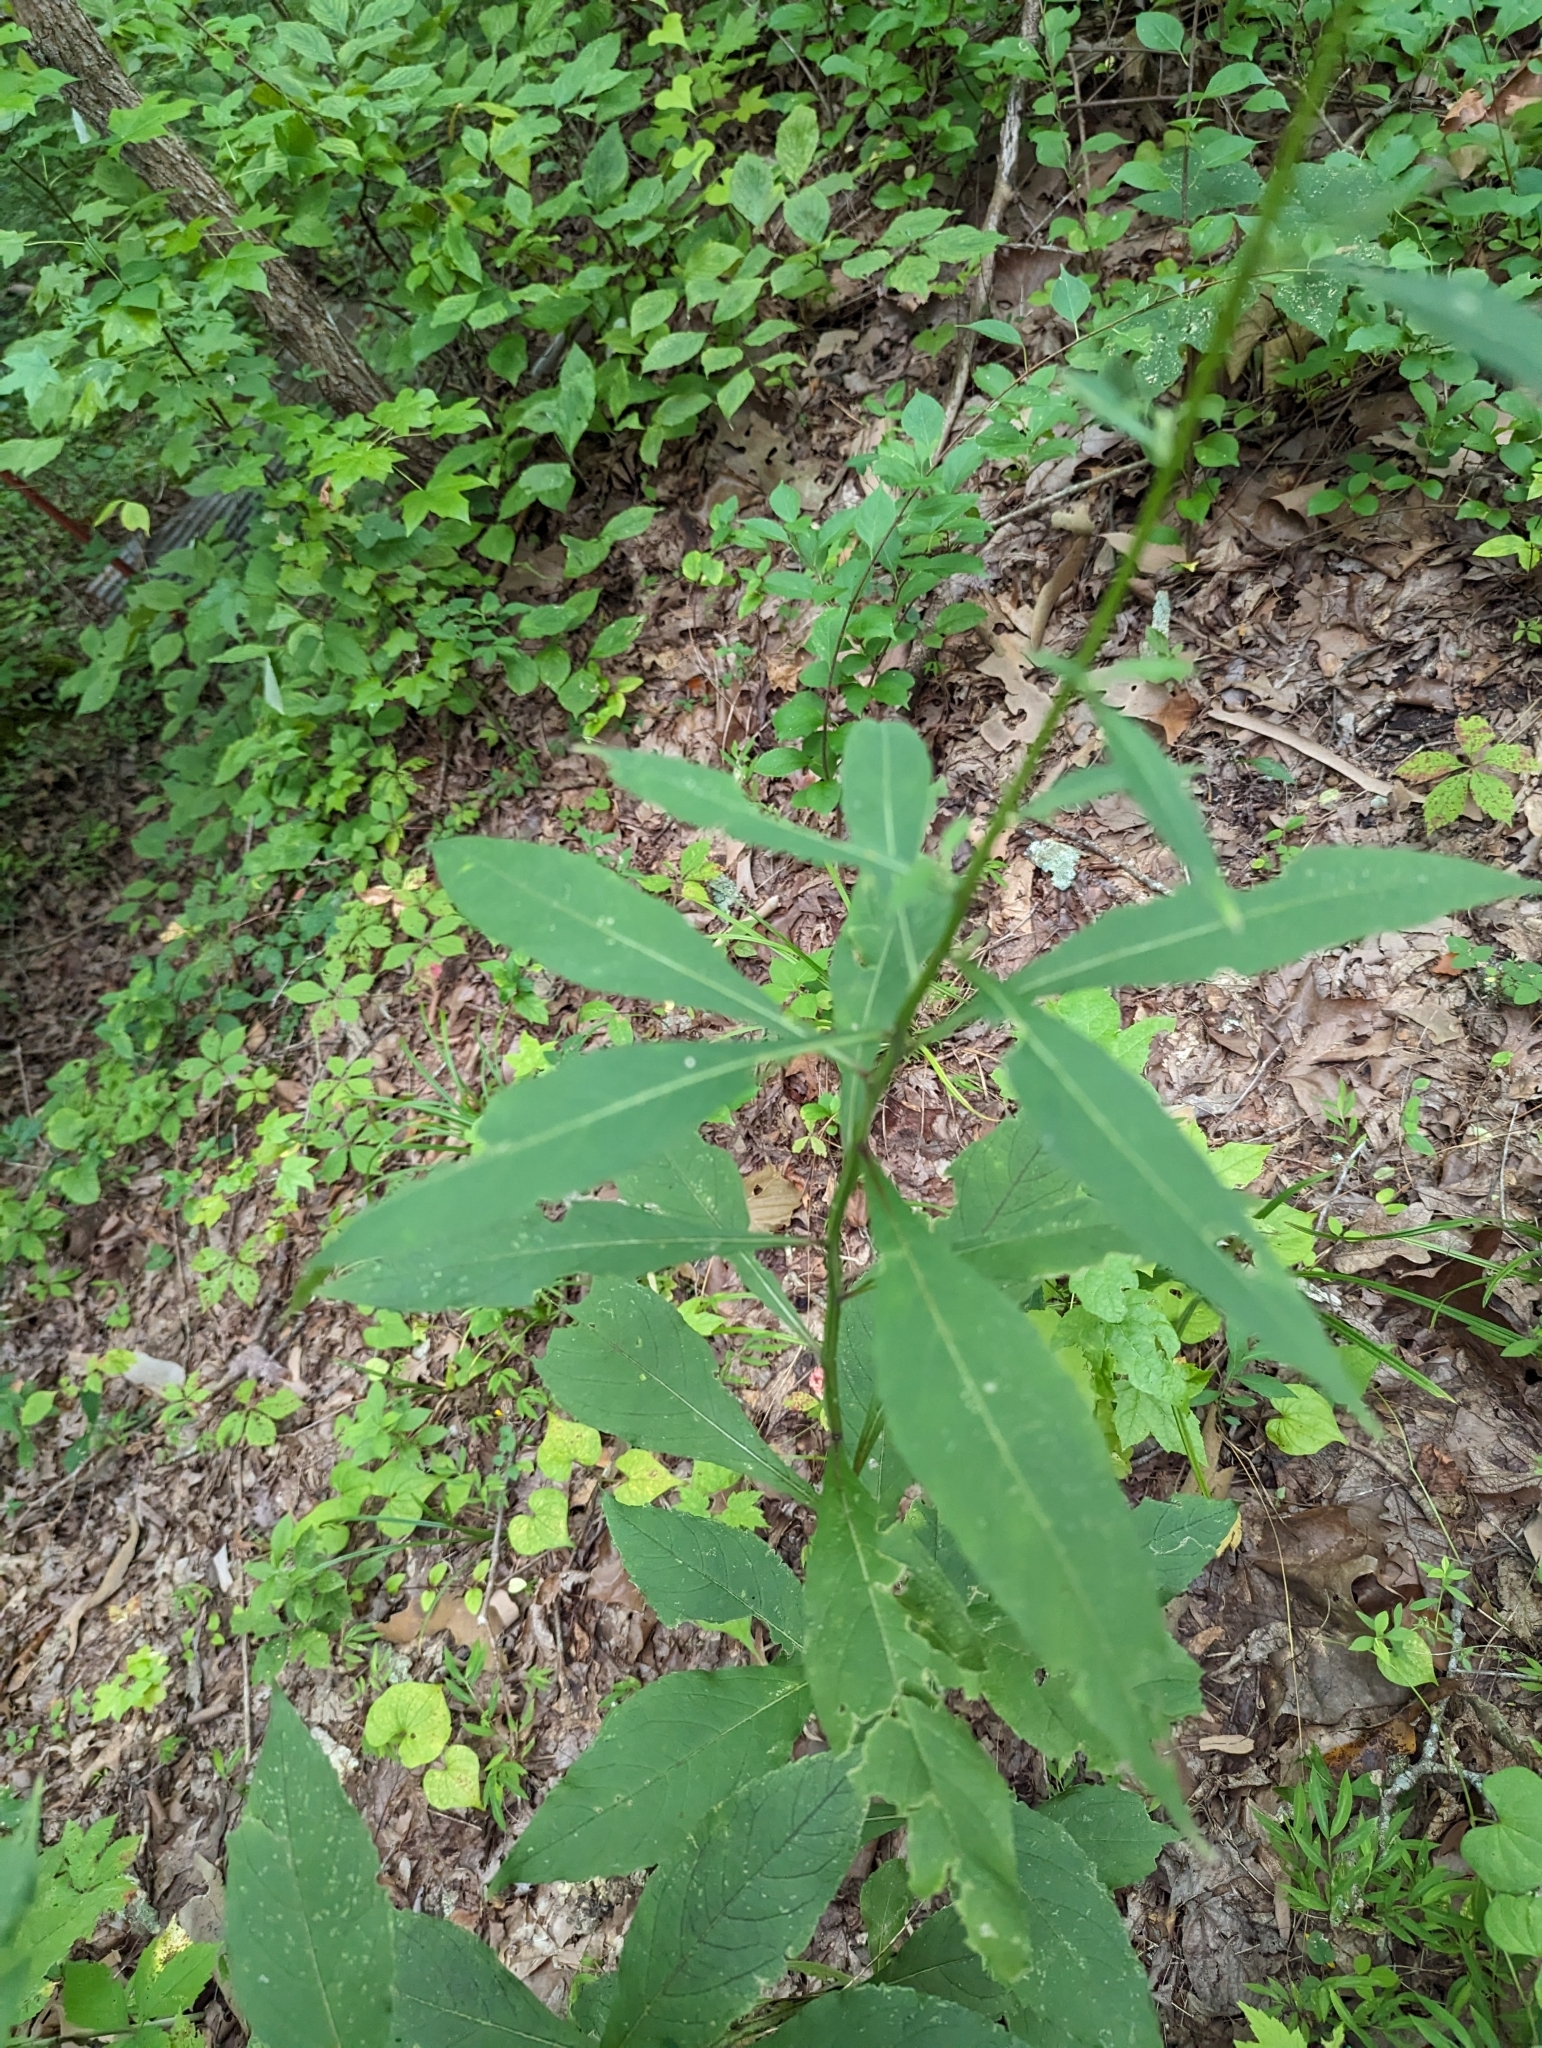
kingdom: Plantae
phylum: Tracheophyta
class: Magnoliopsida
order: Asterales
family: Asteraceae
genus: Verbesina
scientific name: Verbesina alternifolia
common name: Wingstem
